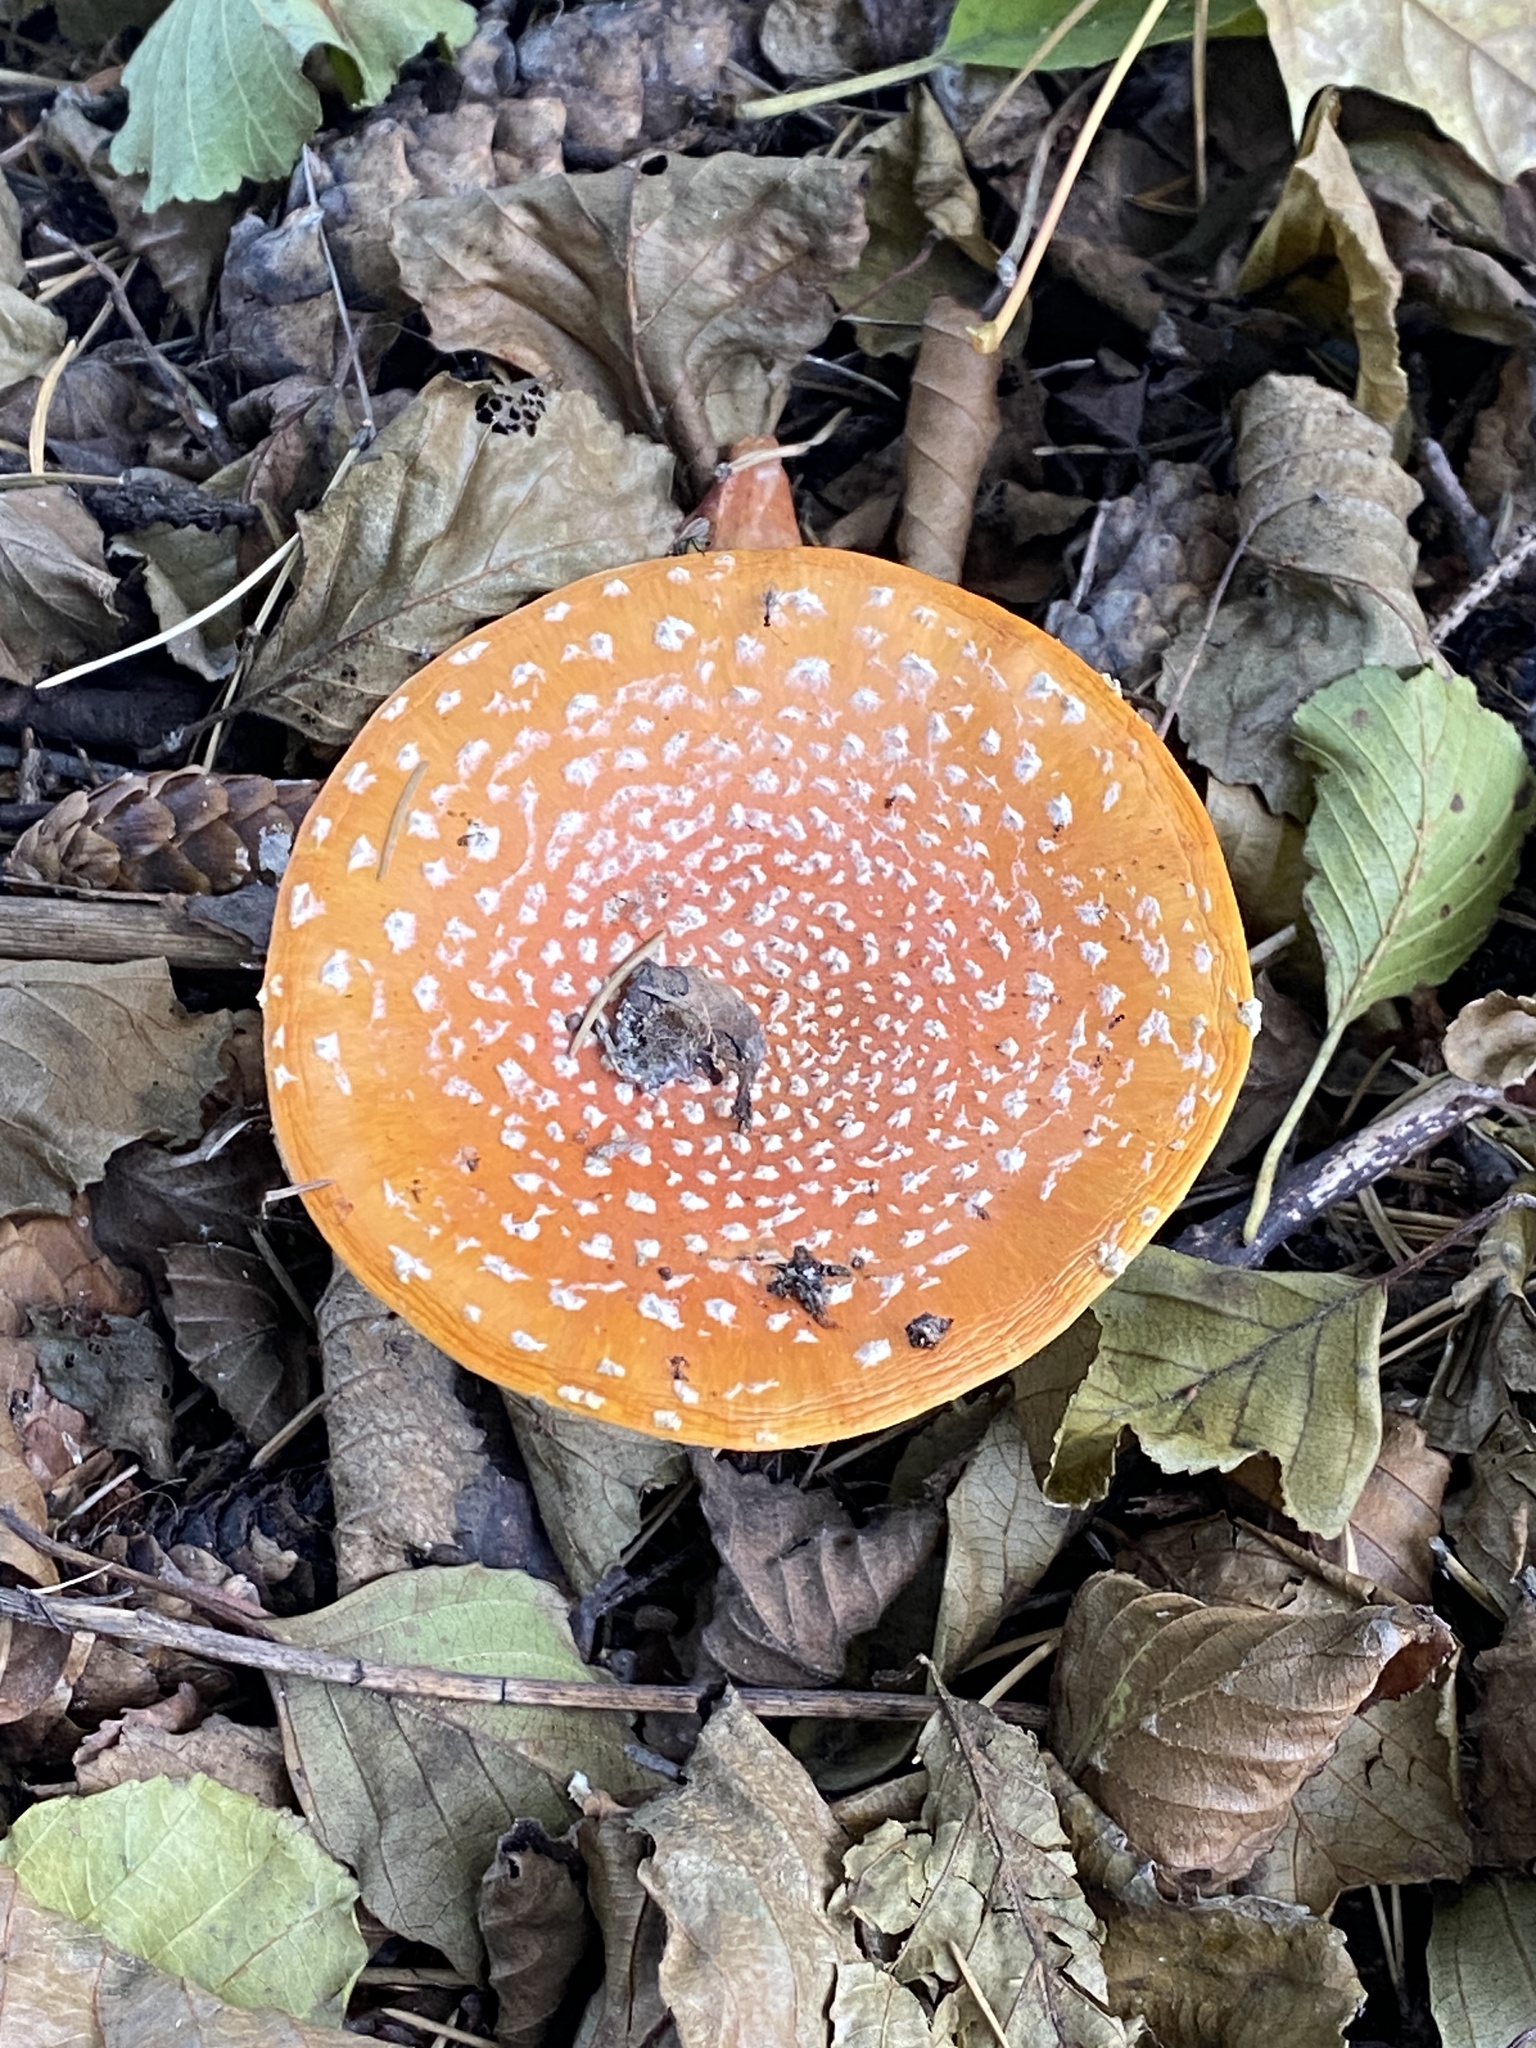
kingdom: Fungi
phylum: Basidiomycota
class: Agaricomycetes
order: Agaricales
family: Amanitaceae
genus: Amanita
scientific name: Amanita muscaria
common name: Fly agaric
